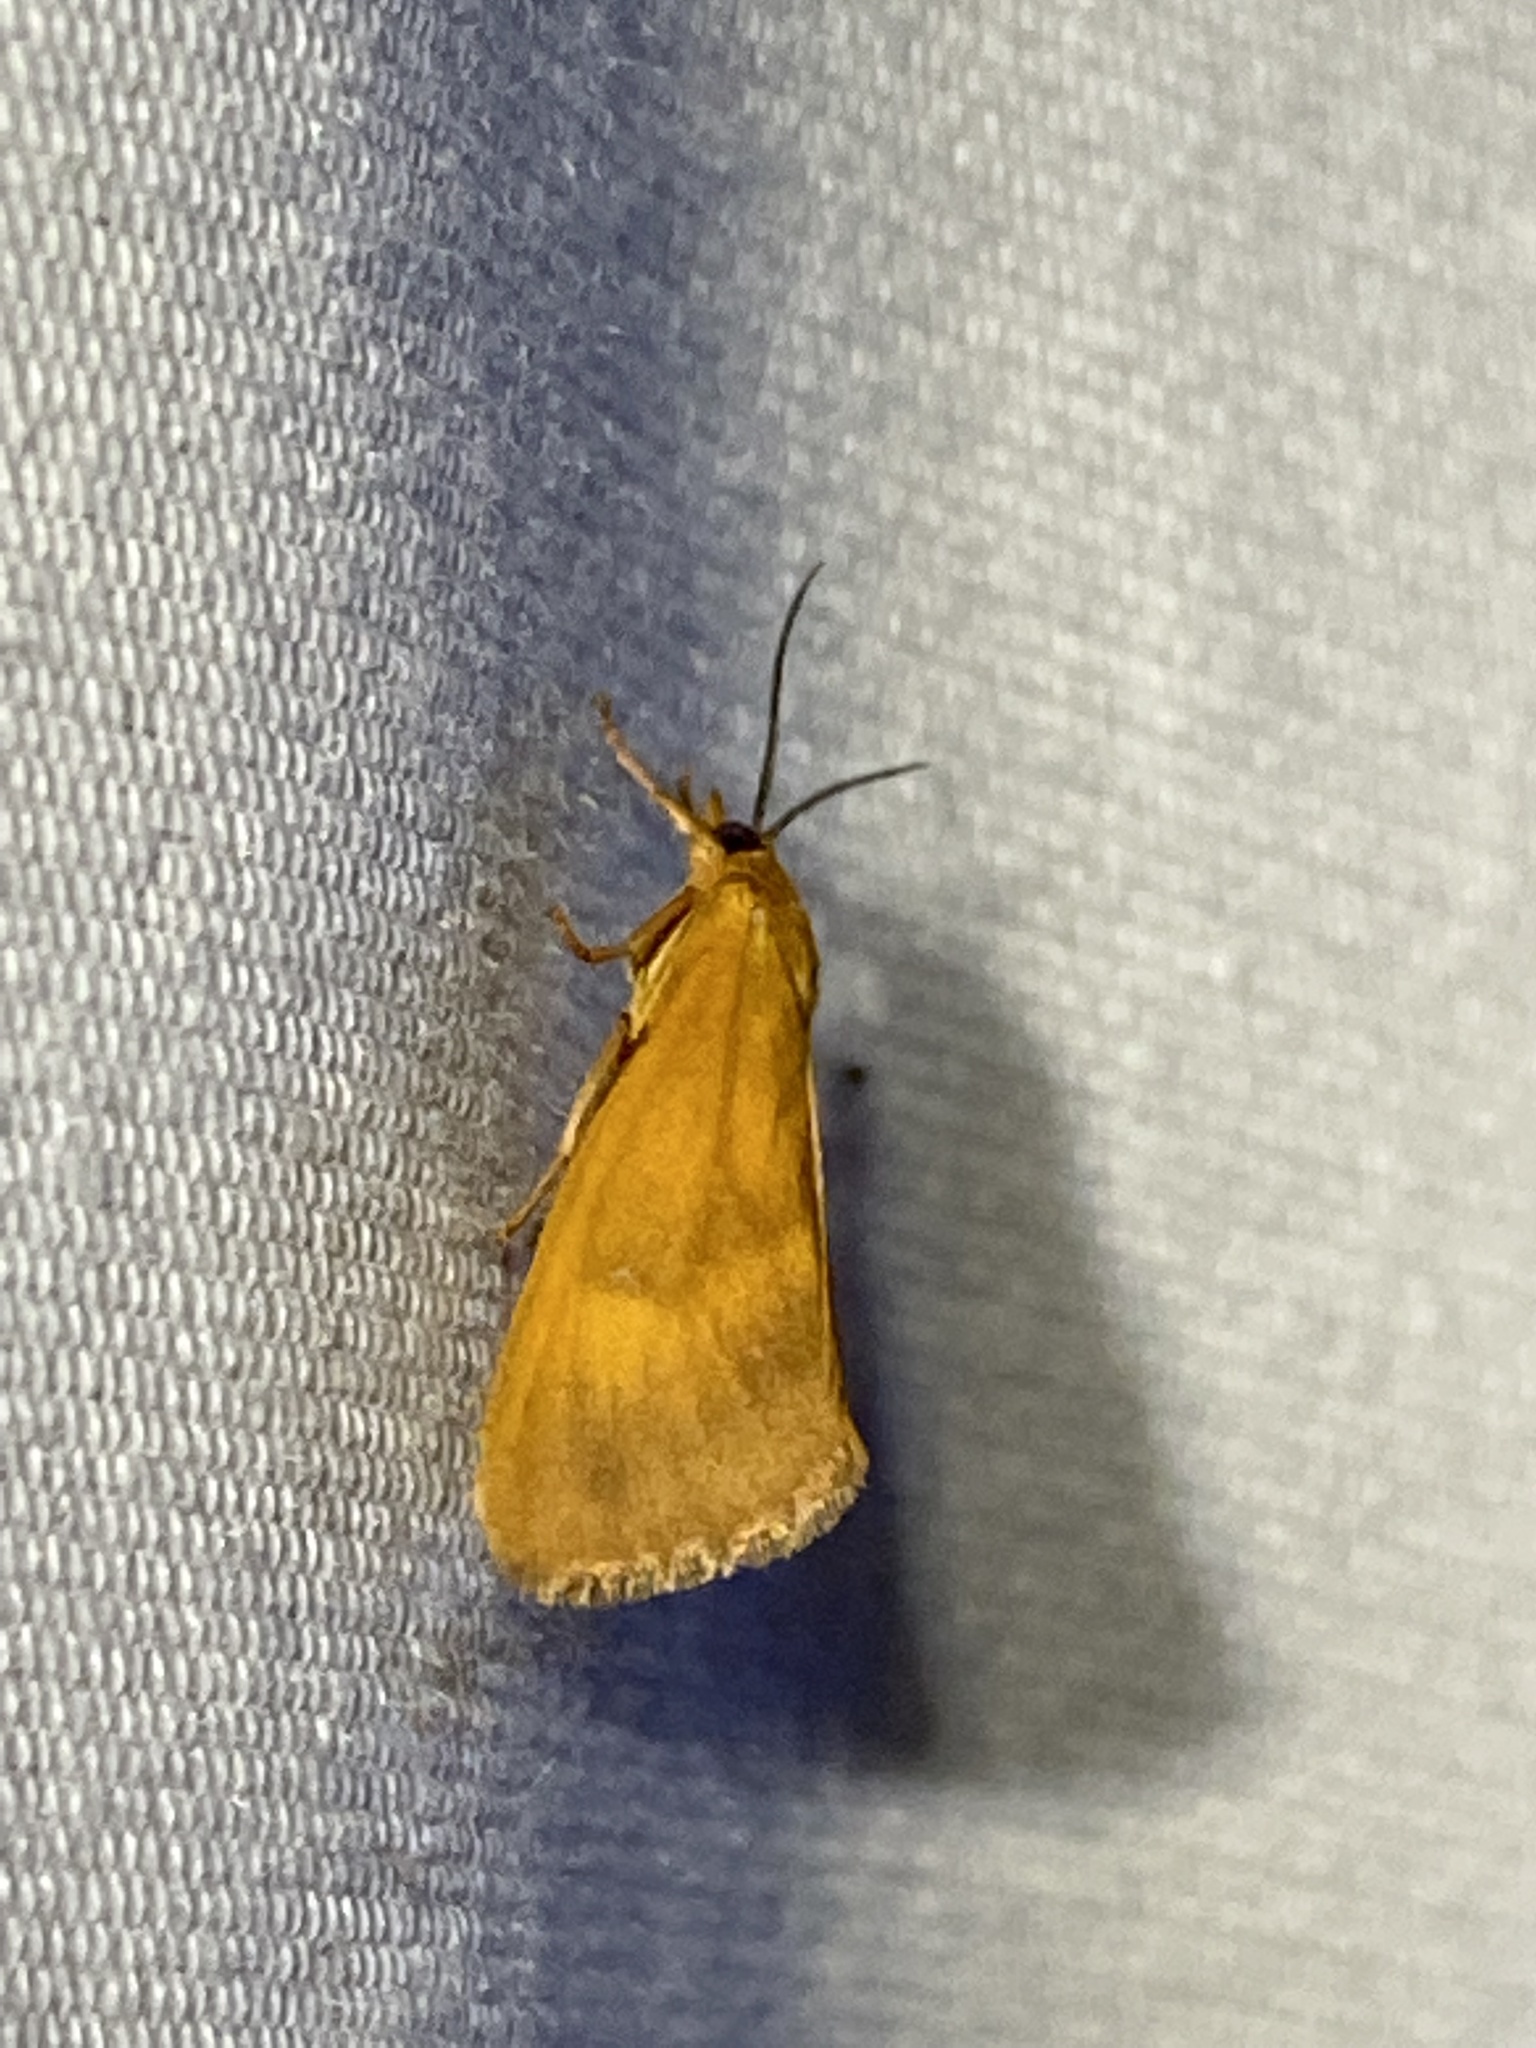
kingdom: Animalia
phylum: Arthropoda
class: Insecta
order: Lepidoptera
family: Erebidae
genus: Virbia
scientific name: Virbia aurantiaca
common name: Orange virbia moth
